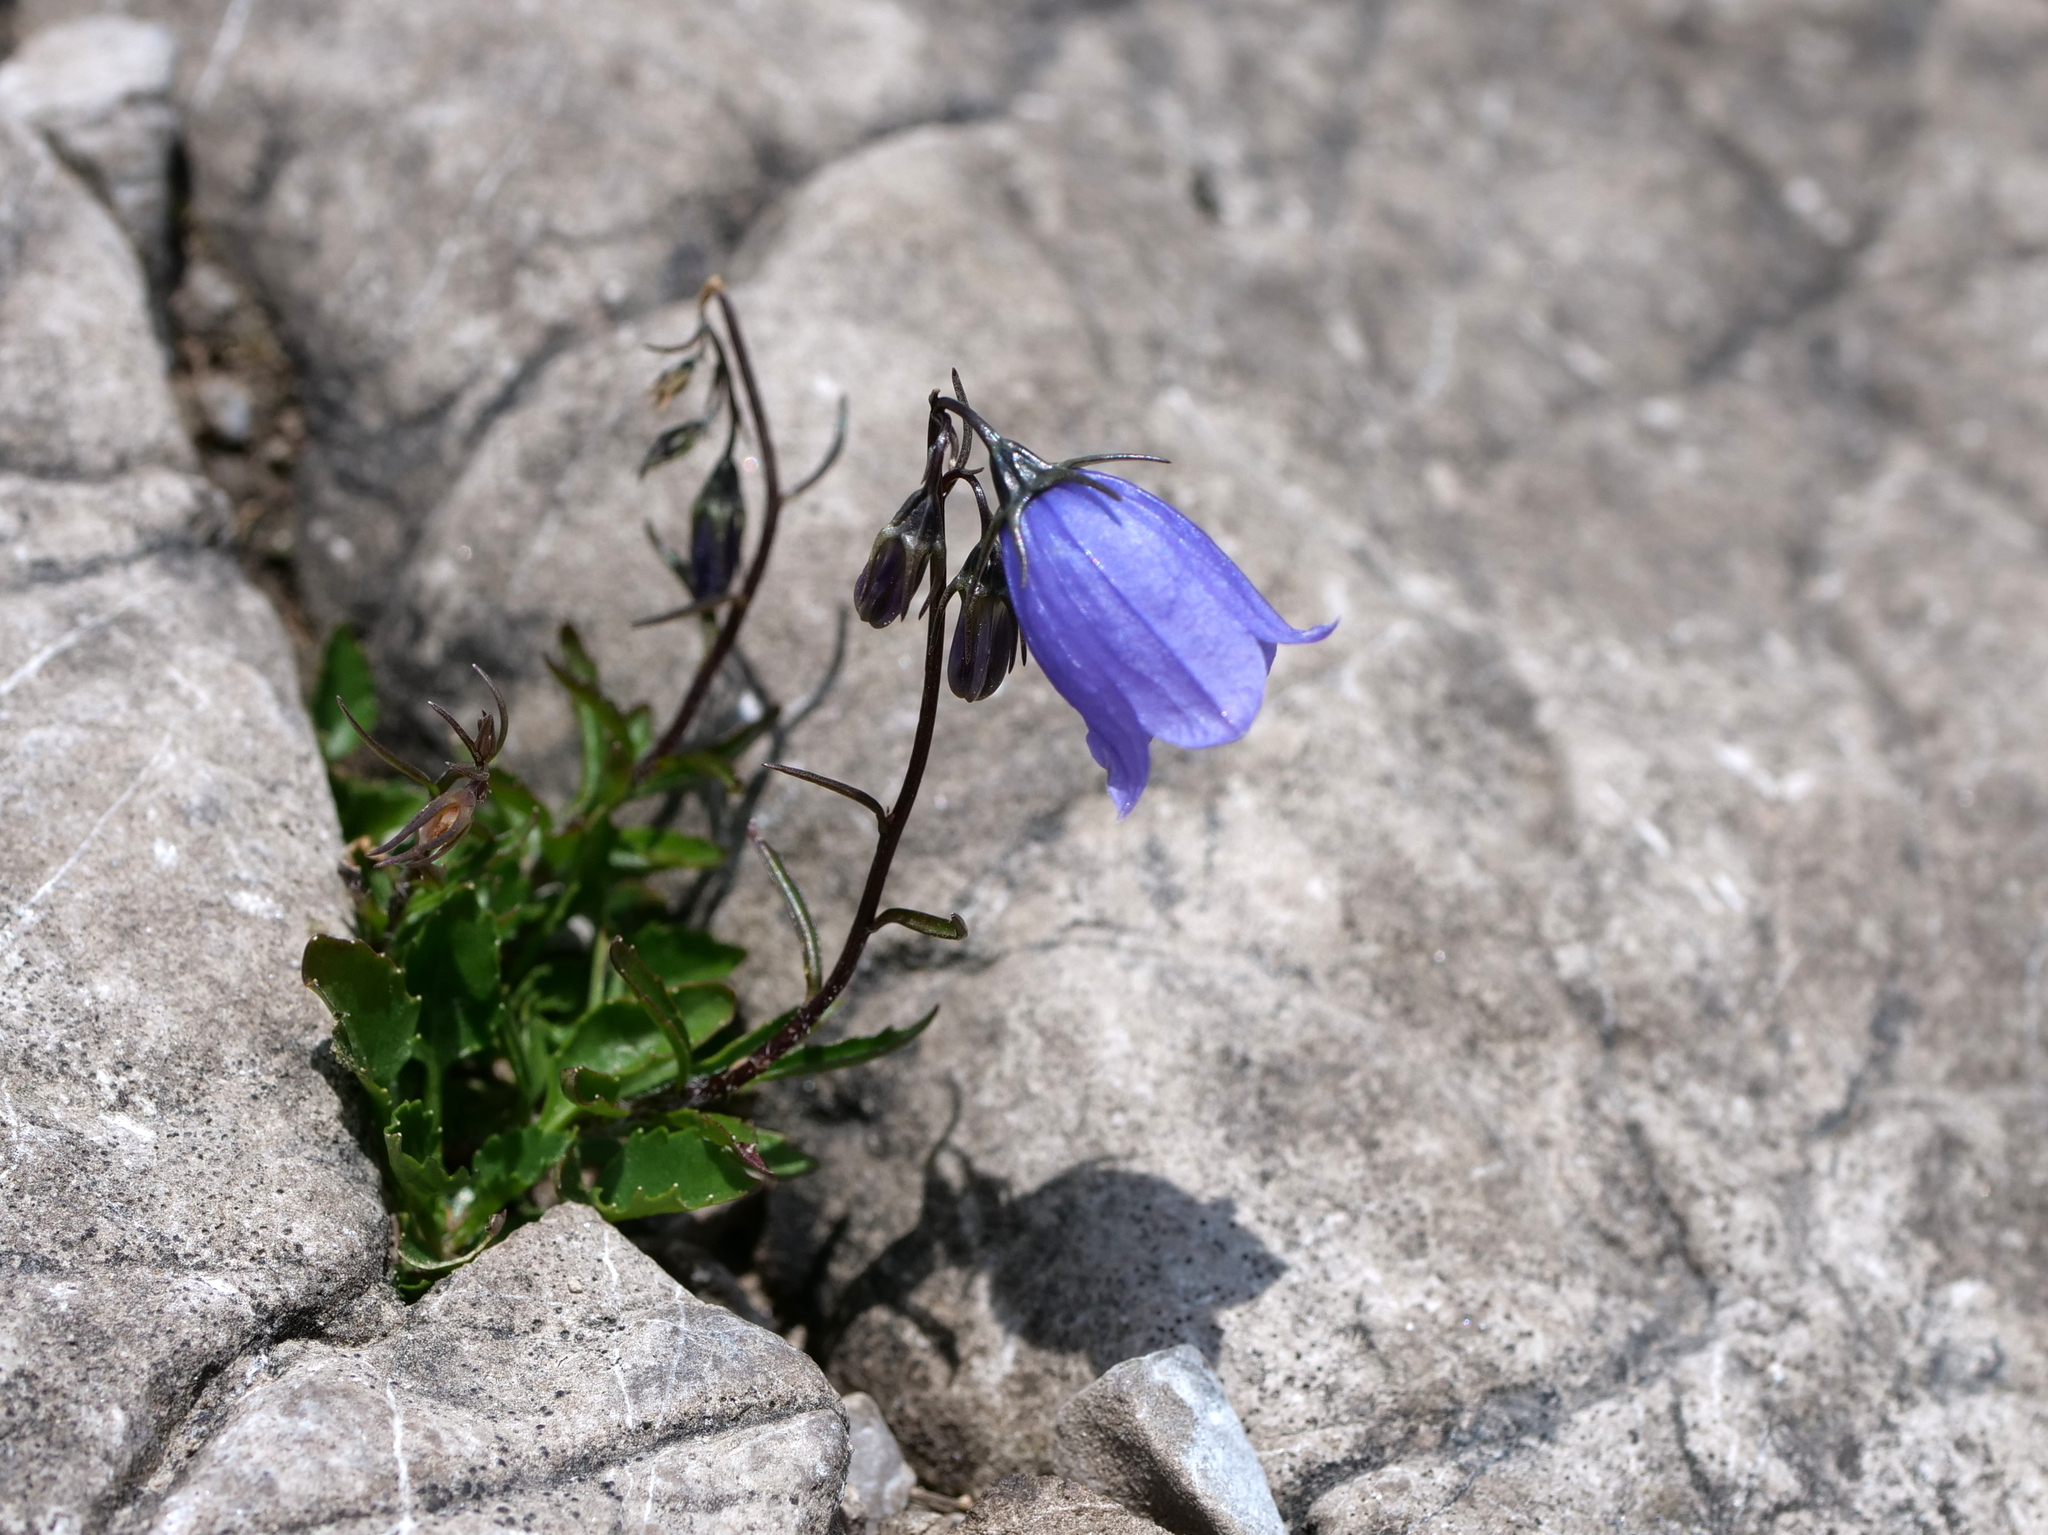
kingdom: Plantae
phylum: Tracheophyta
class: Magnoliopsida
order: Asterales
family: Campanulaceae
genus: Campanula
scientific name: Campanula cochleariifolia
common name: Fairies'-thimbles
